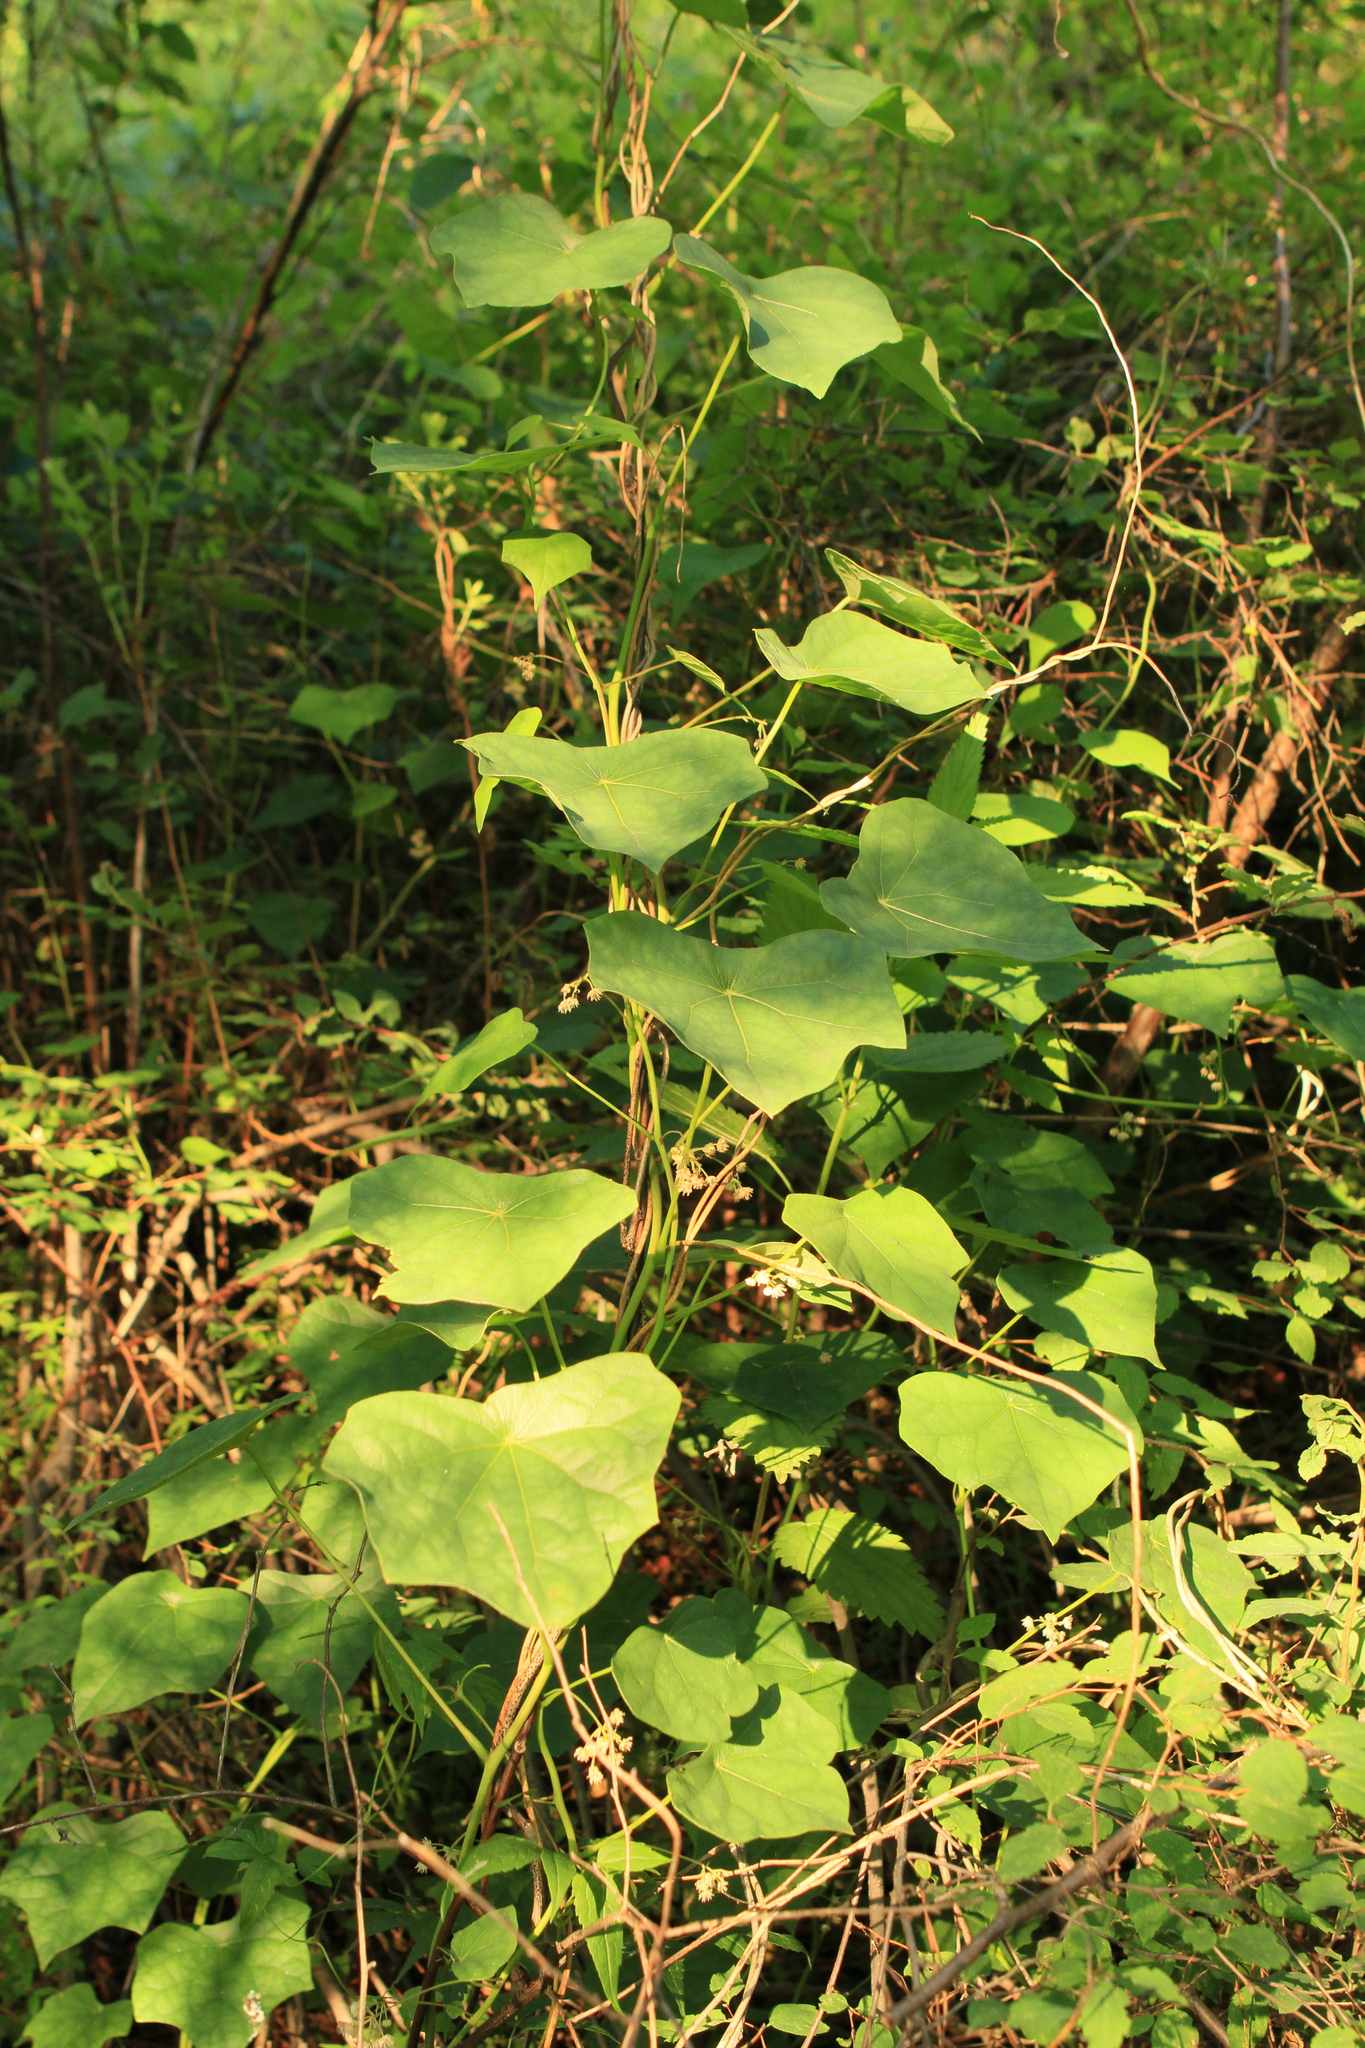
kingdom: Plantae
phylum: Tracheophyta
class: Magnoliopsida
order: Ranunculales
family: Menispermaceae
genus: Menispermum
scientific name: Menispermum dauricum
